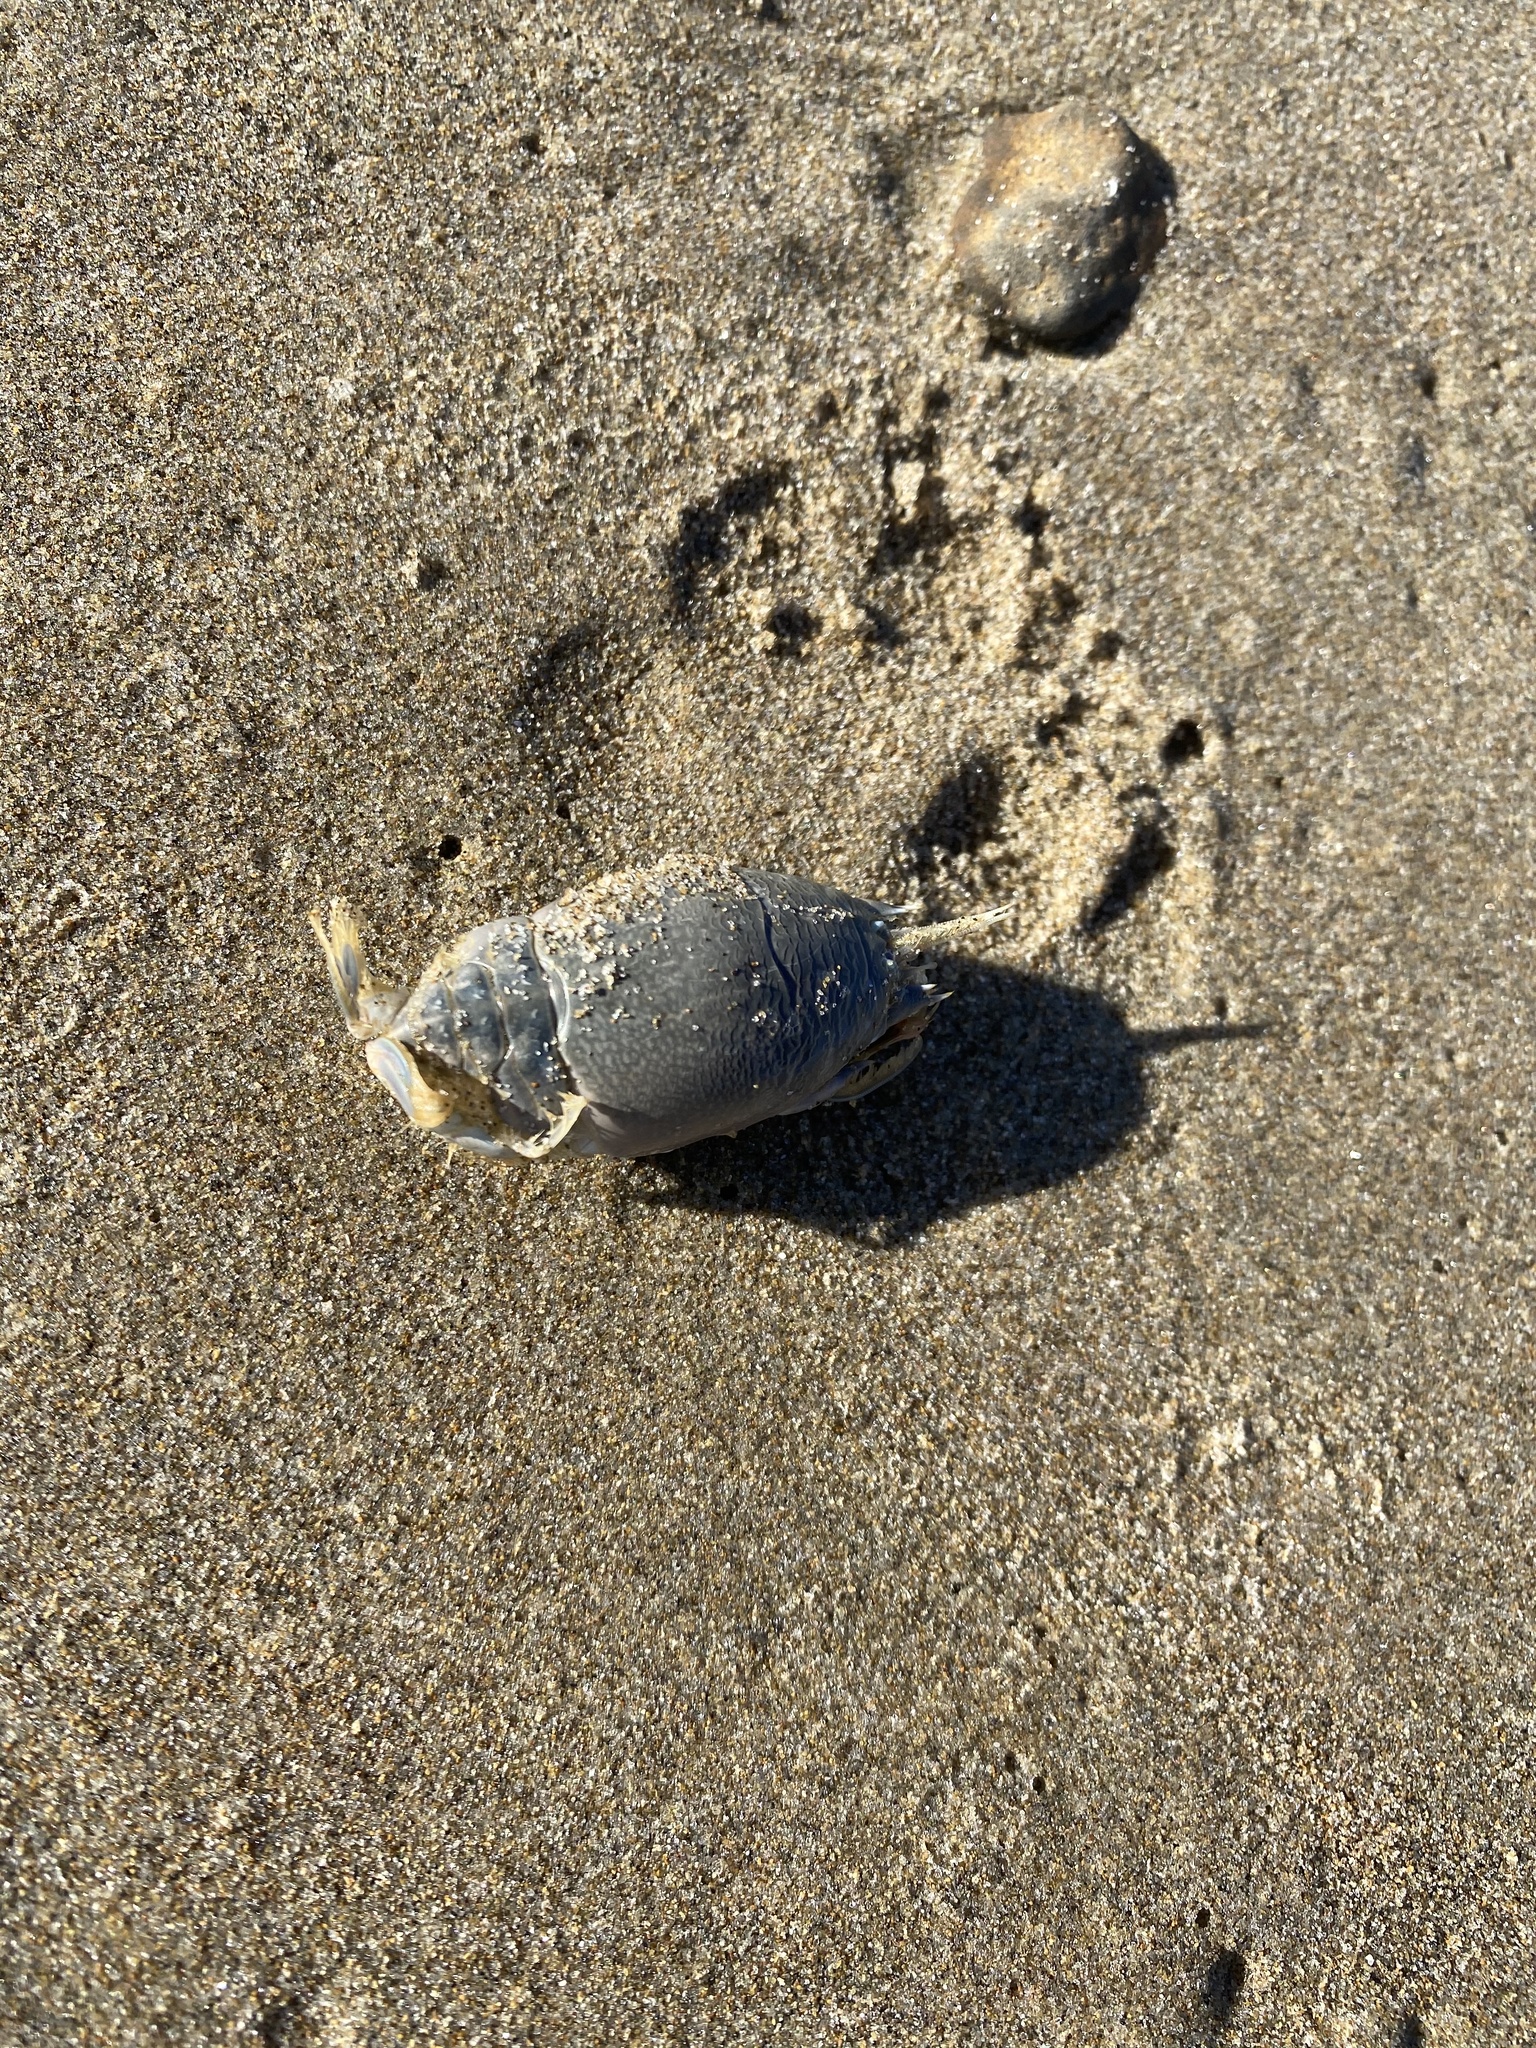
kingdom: Animalia
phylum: Arthropoda
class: Malacostraca
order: Decapoda
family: Hippidae
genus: Emerita
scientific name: Emerita analoga
